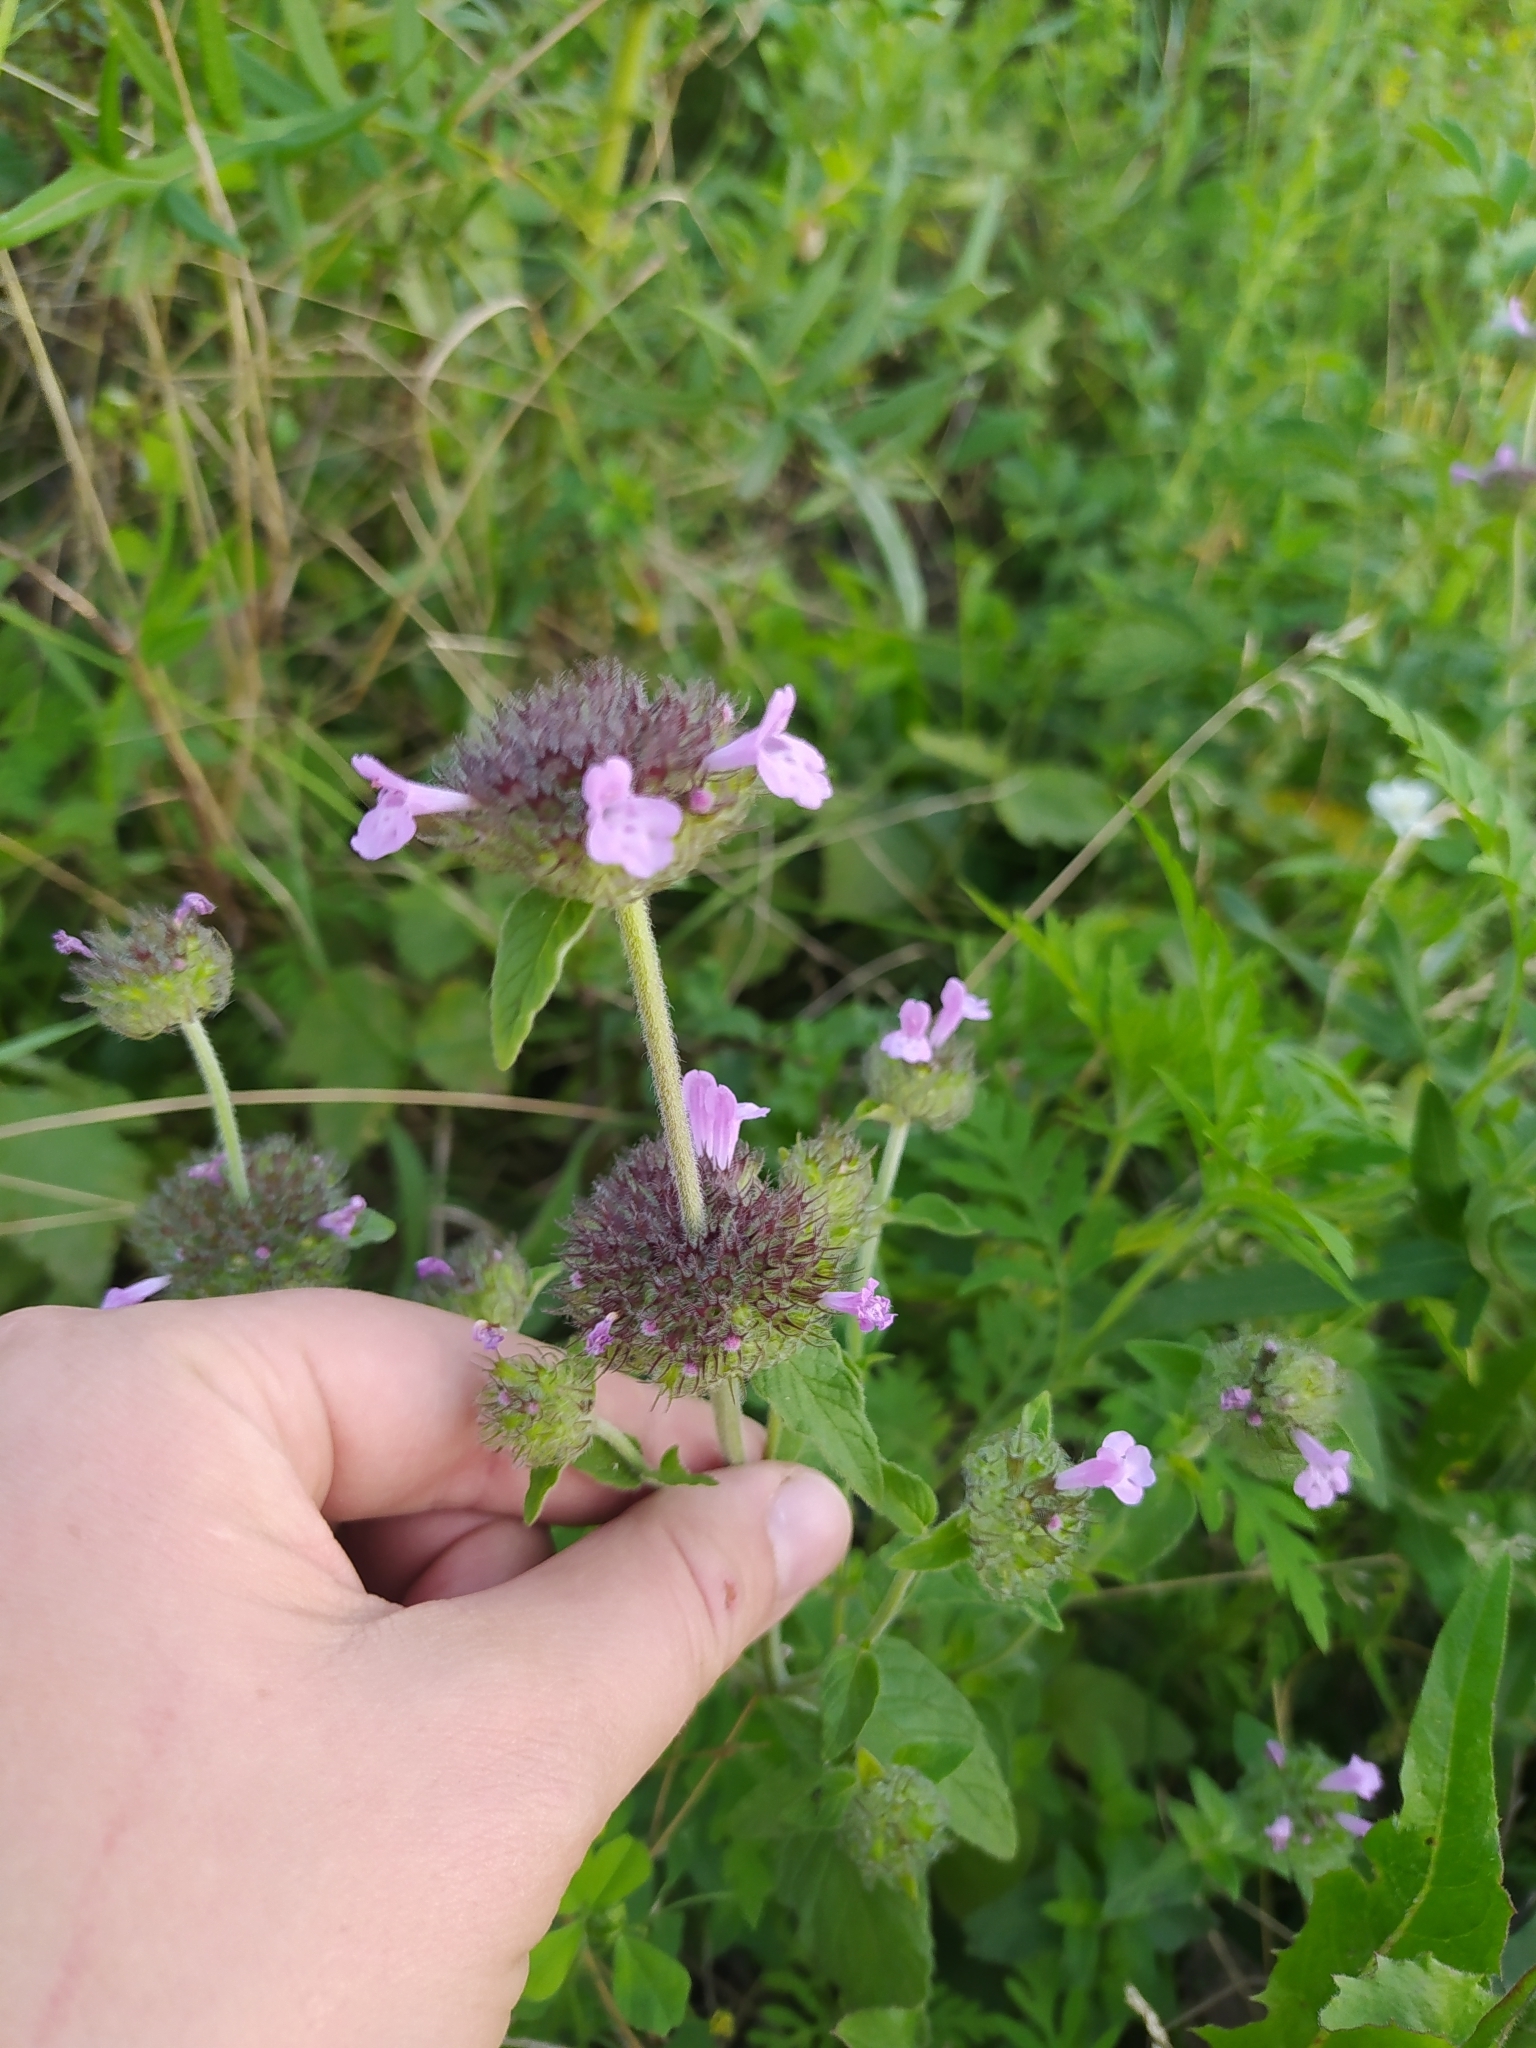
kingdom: Plantae
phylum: Tracheophyta
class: Magnoliopsida
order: Lamiales
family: Lamiaceae
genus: Clinopodium
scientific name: Clinopodium vulgare
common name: Wild basil
